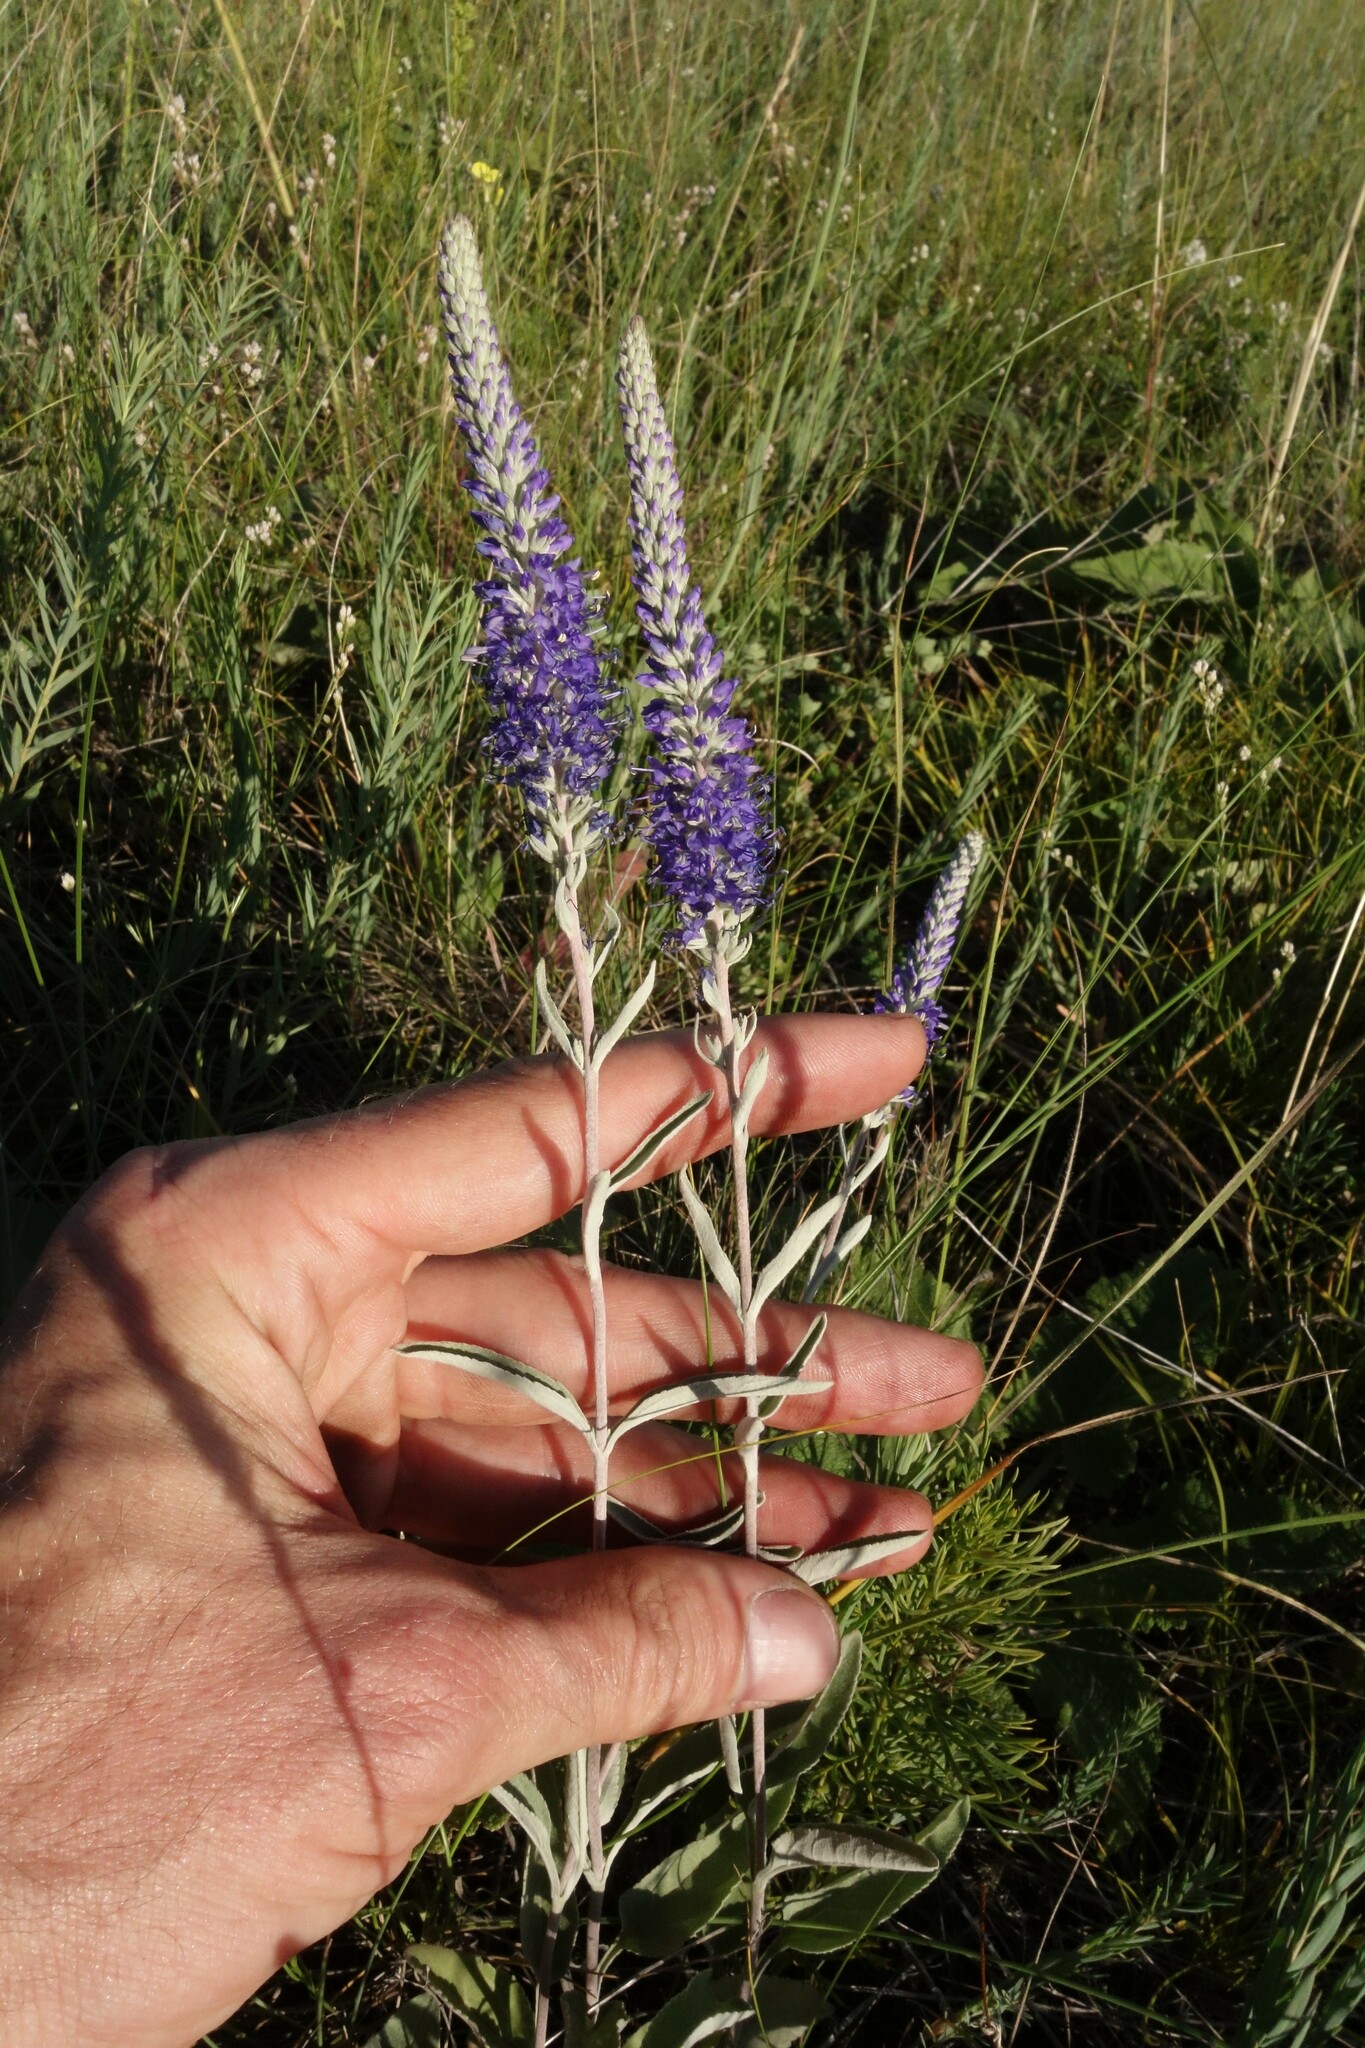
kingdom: Plantae
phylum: Tracheophyta
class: Magnoliopsida
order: Lamiales
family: Plantaginaceae
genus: Veronica
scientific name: Veronica incana
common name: Silver speedwell
